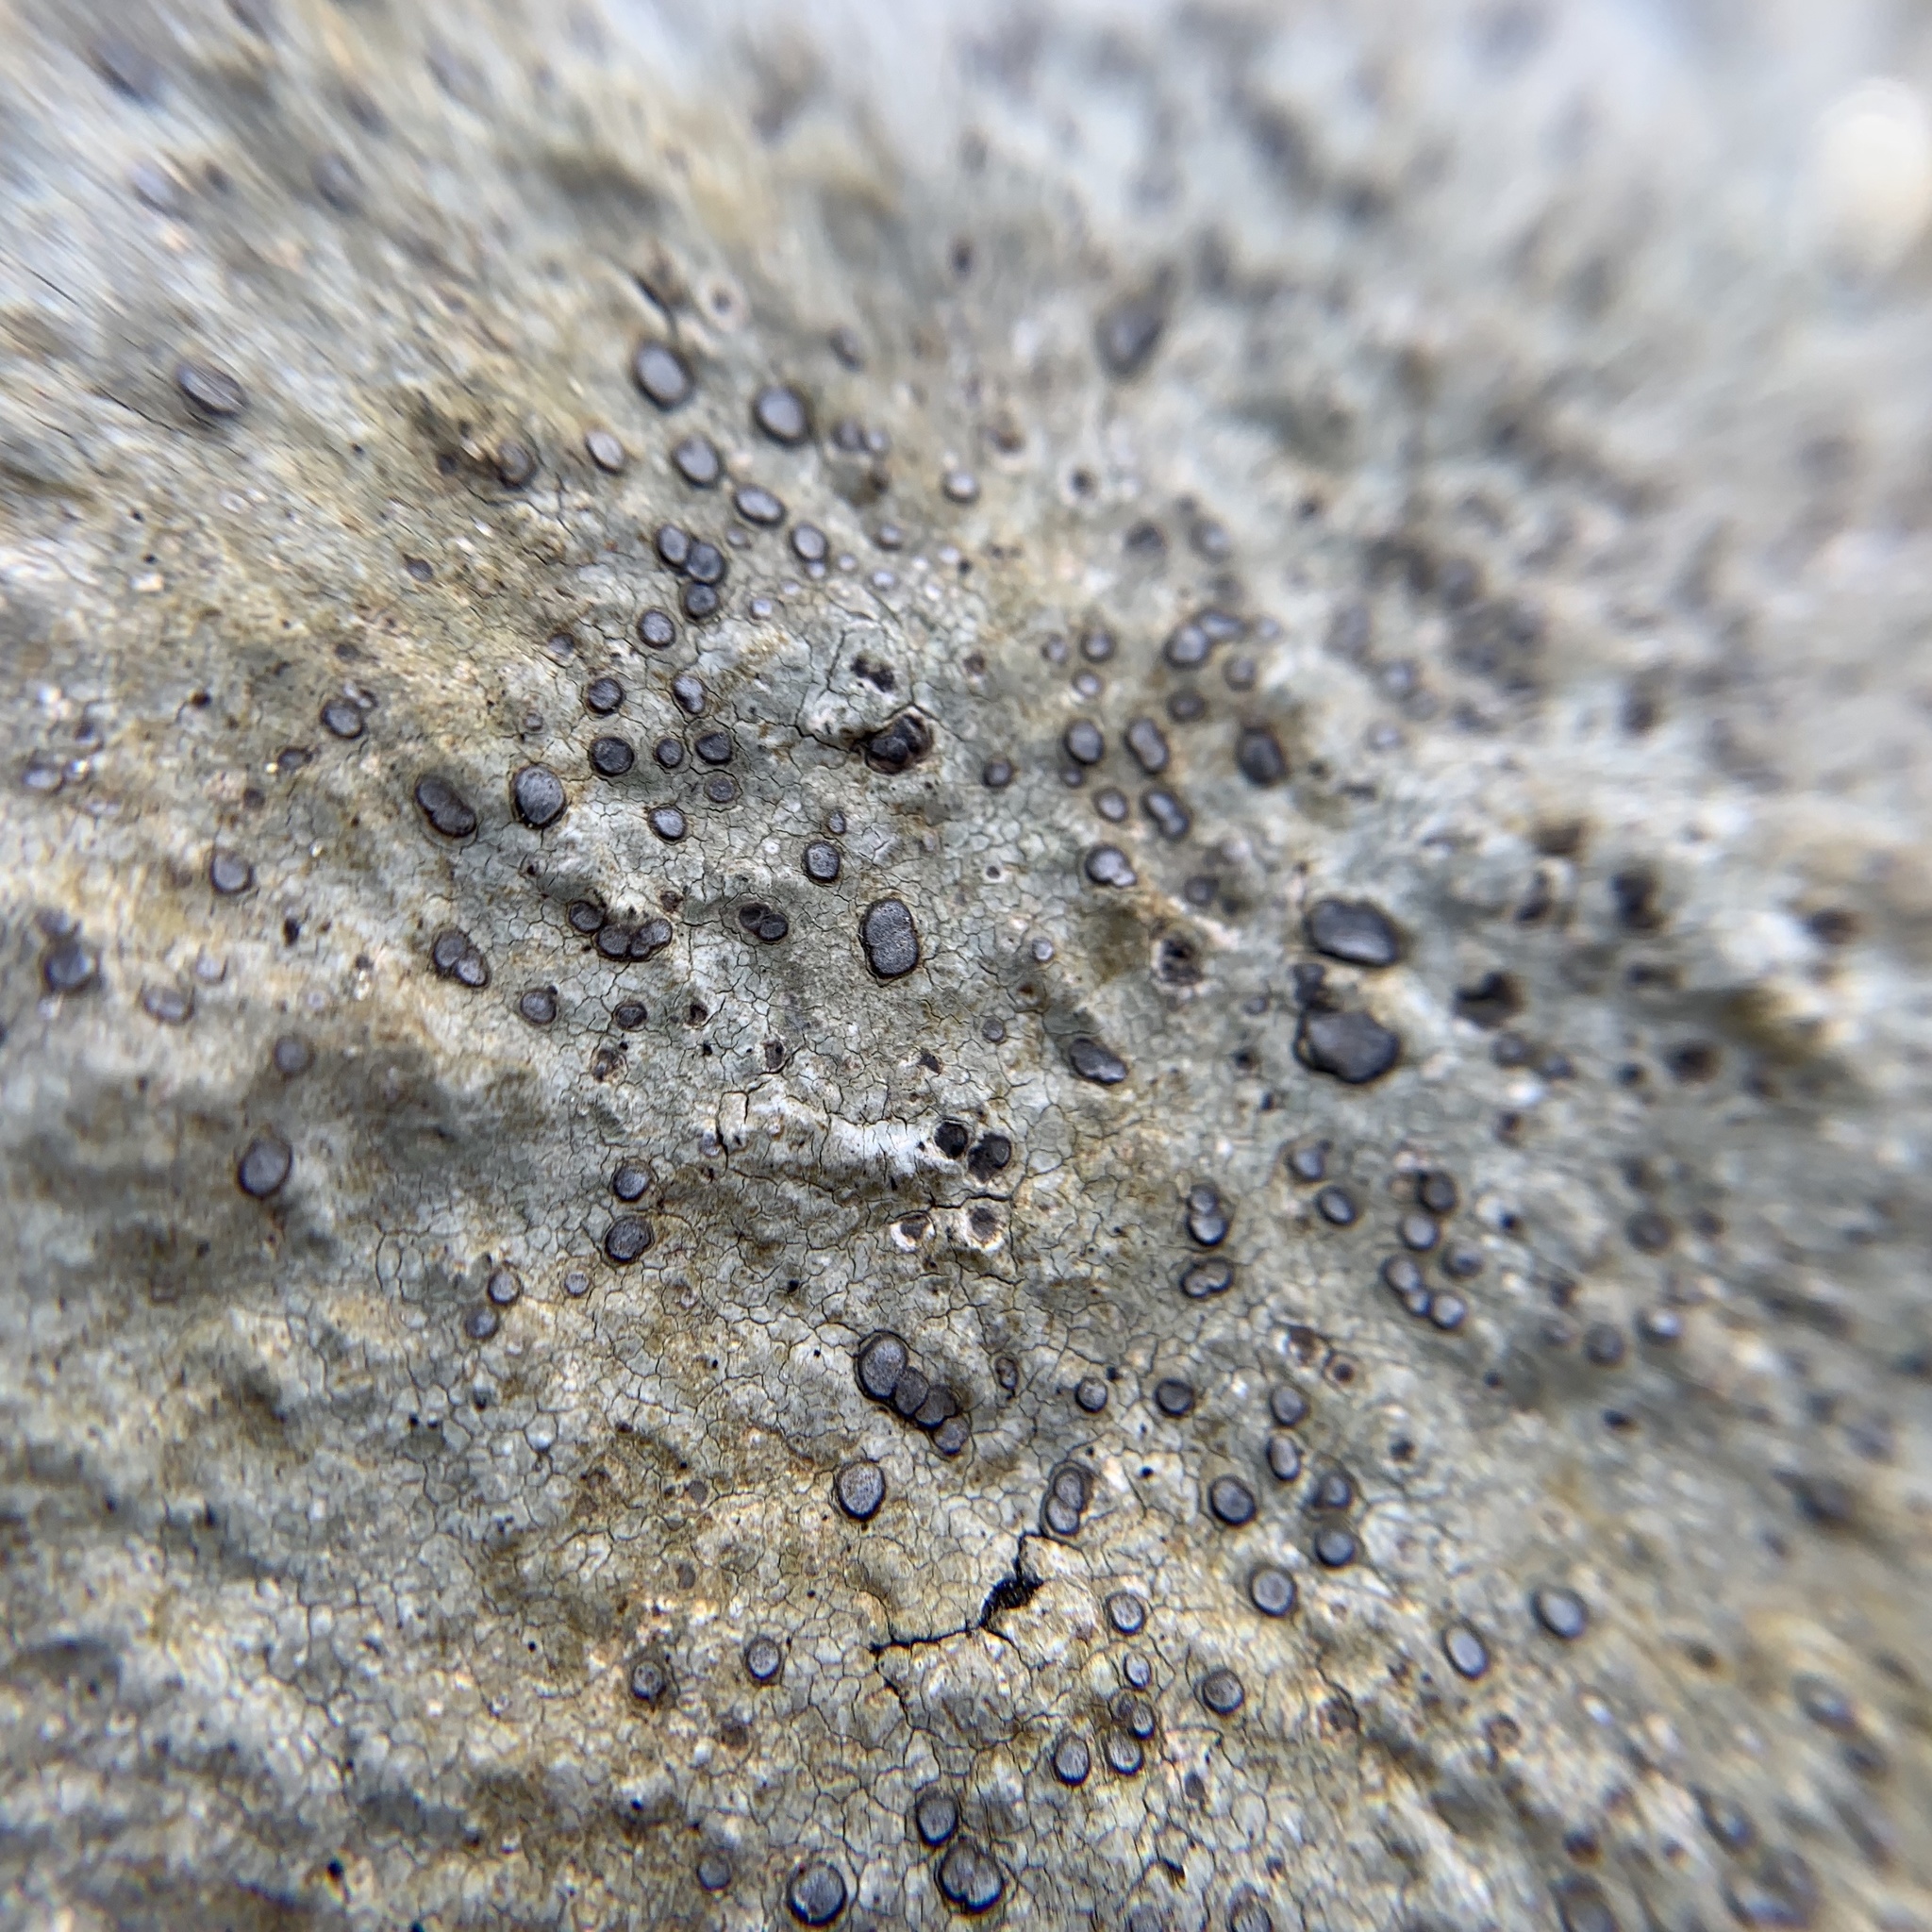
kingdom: Fungi
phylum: Ascomycota
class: Lecanoromycetes
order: Lecideales
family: Lecideaceae
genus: Porpidia
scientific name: Porpidia albocaerulescens
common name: Smokey-eyed boulder lichen
